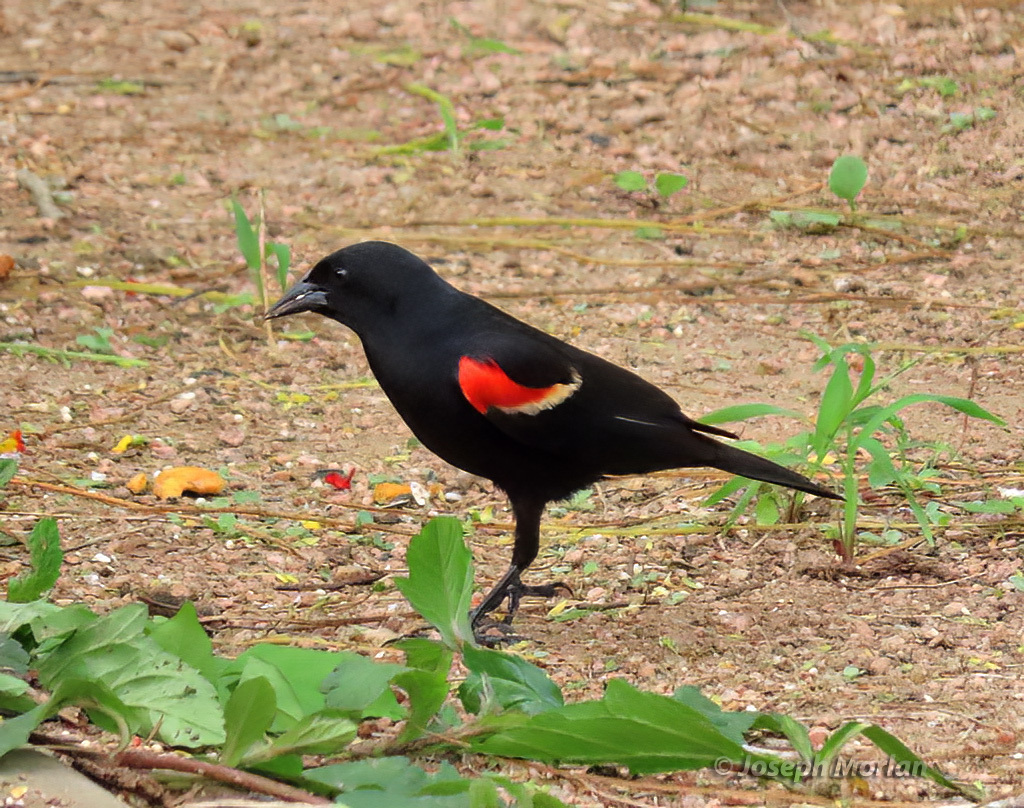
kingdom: Animalia
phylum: Chordata
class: Aves
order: Passeriformes
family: Icteridae
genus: Agelaius
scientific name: Agelaius phoeniceus
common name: Red-winged blackbird
